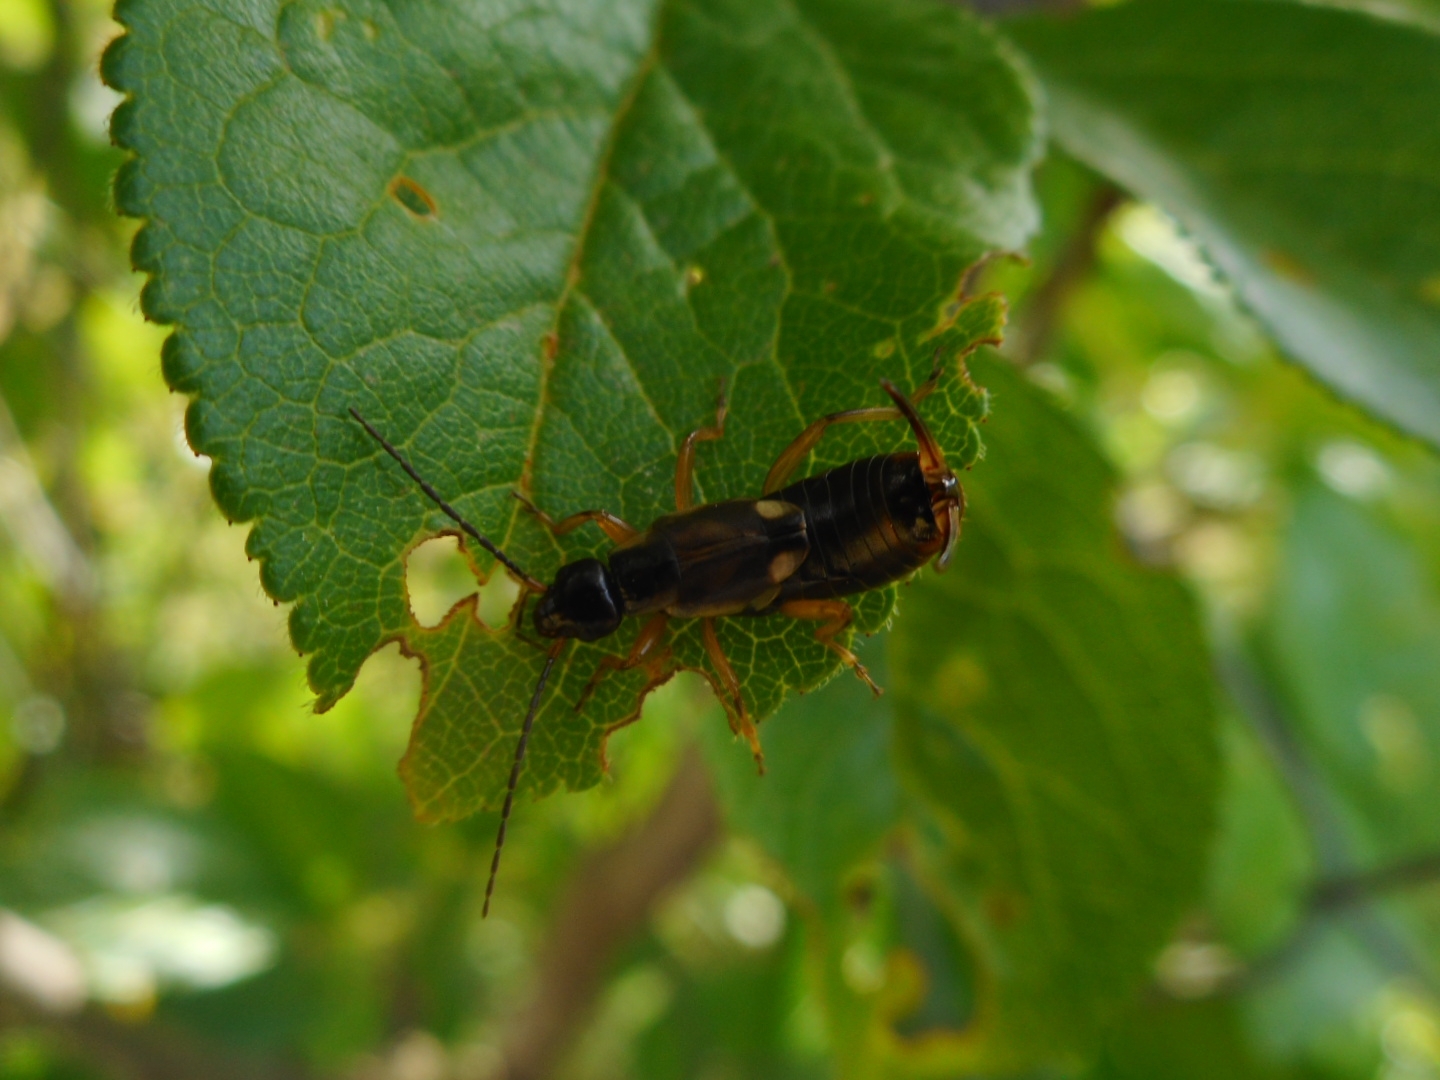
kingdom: Animalia
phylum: Arthropoda
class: Insecta
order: Dermaptera
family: Forficulidae
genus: Forficula
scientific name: Forficula
